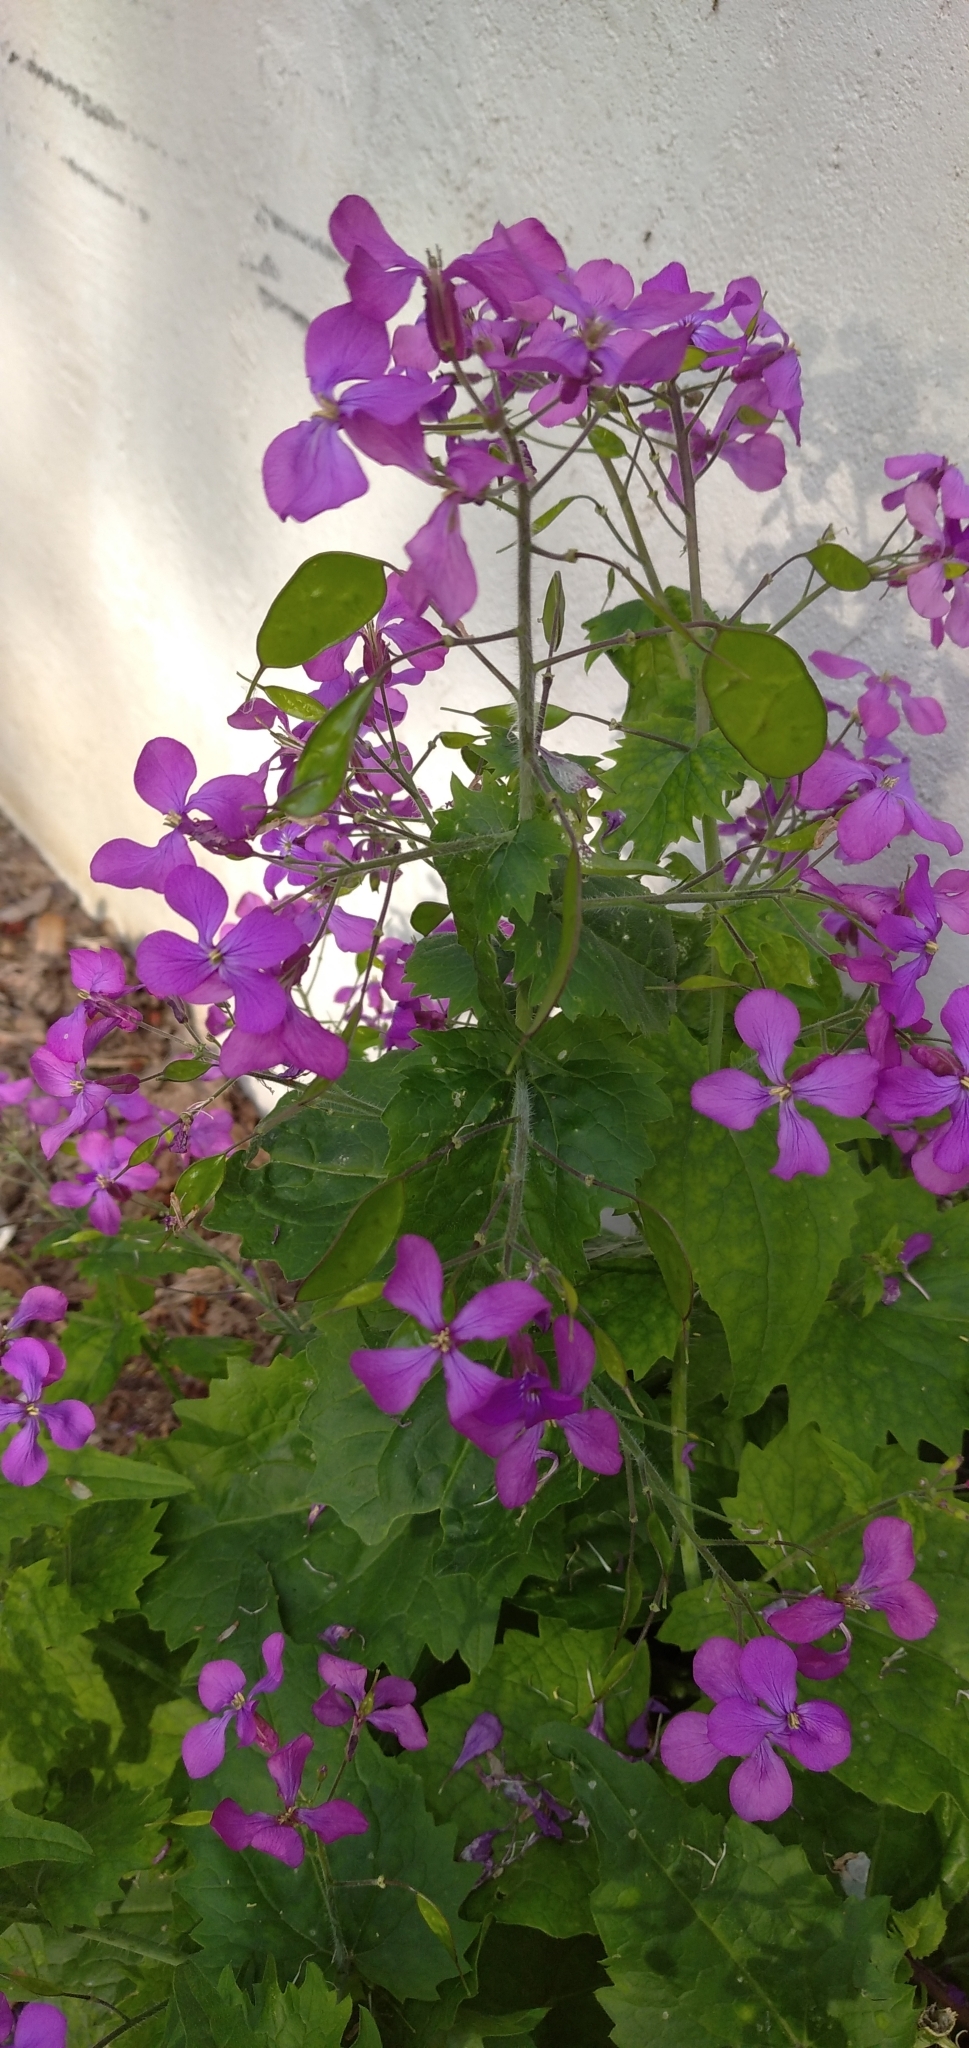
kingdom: Plantae
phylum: Tracheophyta
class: Magnoliopsida
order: Brassicales
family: Brassicaceae
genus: Lunaria
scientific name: Lunaria annua
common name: Honesty
